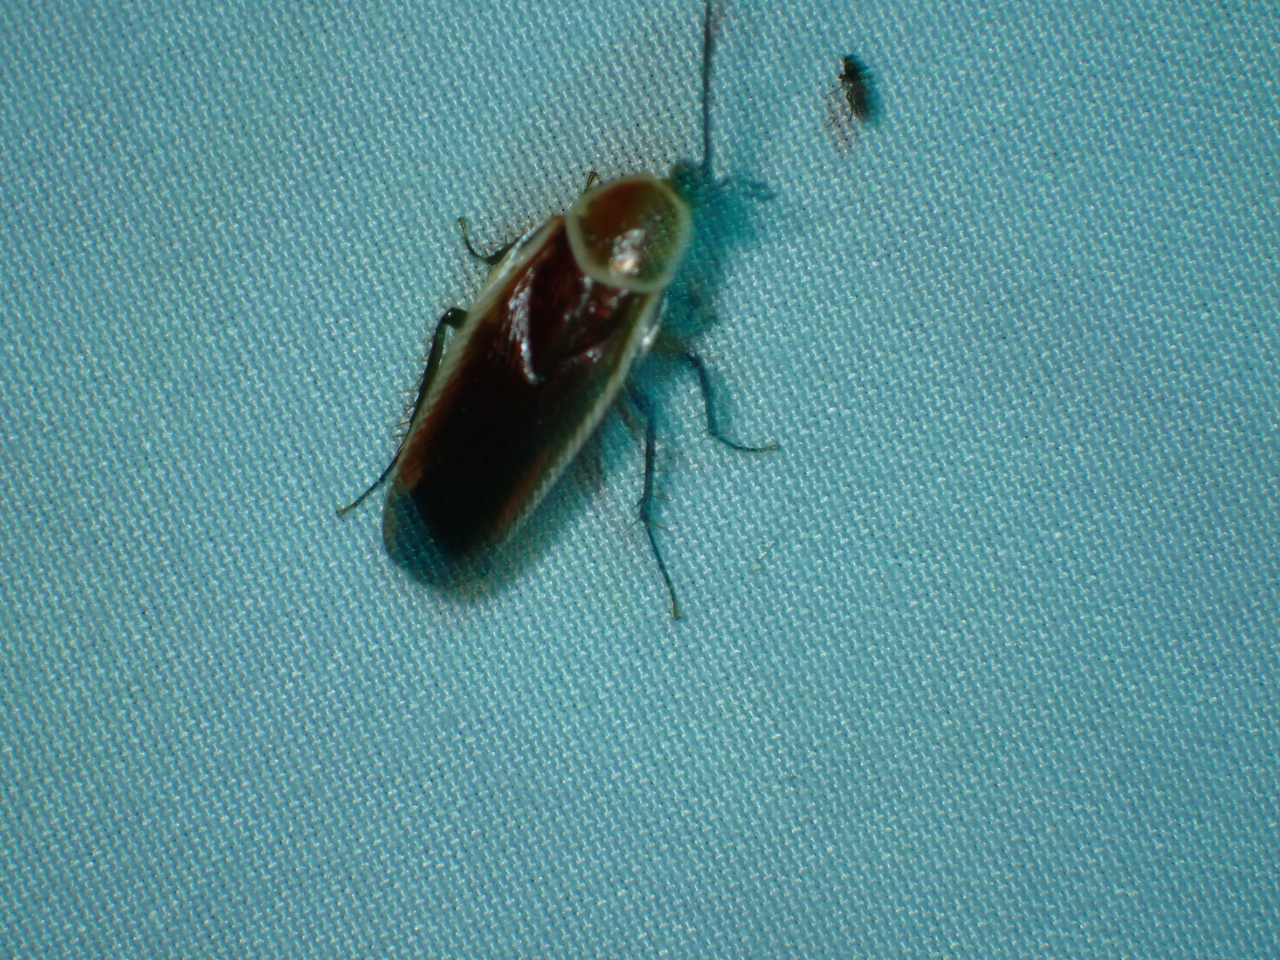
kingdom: Animalia
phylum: Arthropoda
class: Insecta
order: Blattodea
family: Ectobiidae
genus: Pseudomops
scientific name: Pseudomops septentrionalis
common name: Pale-bordered field cockroach
